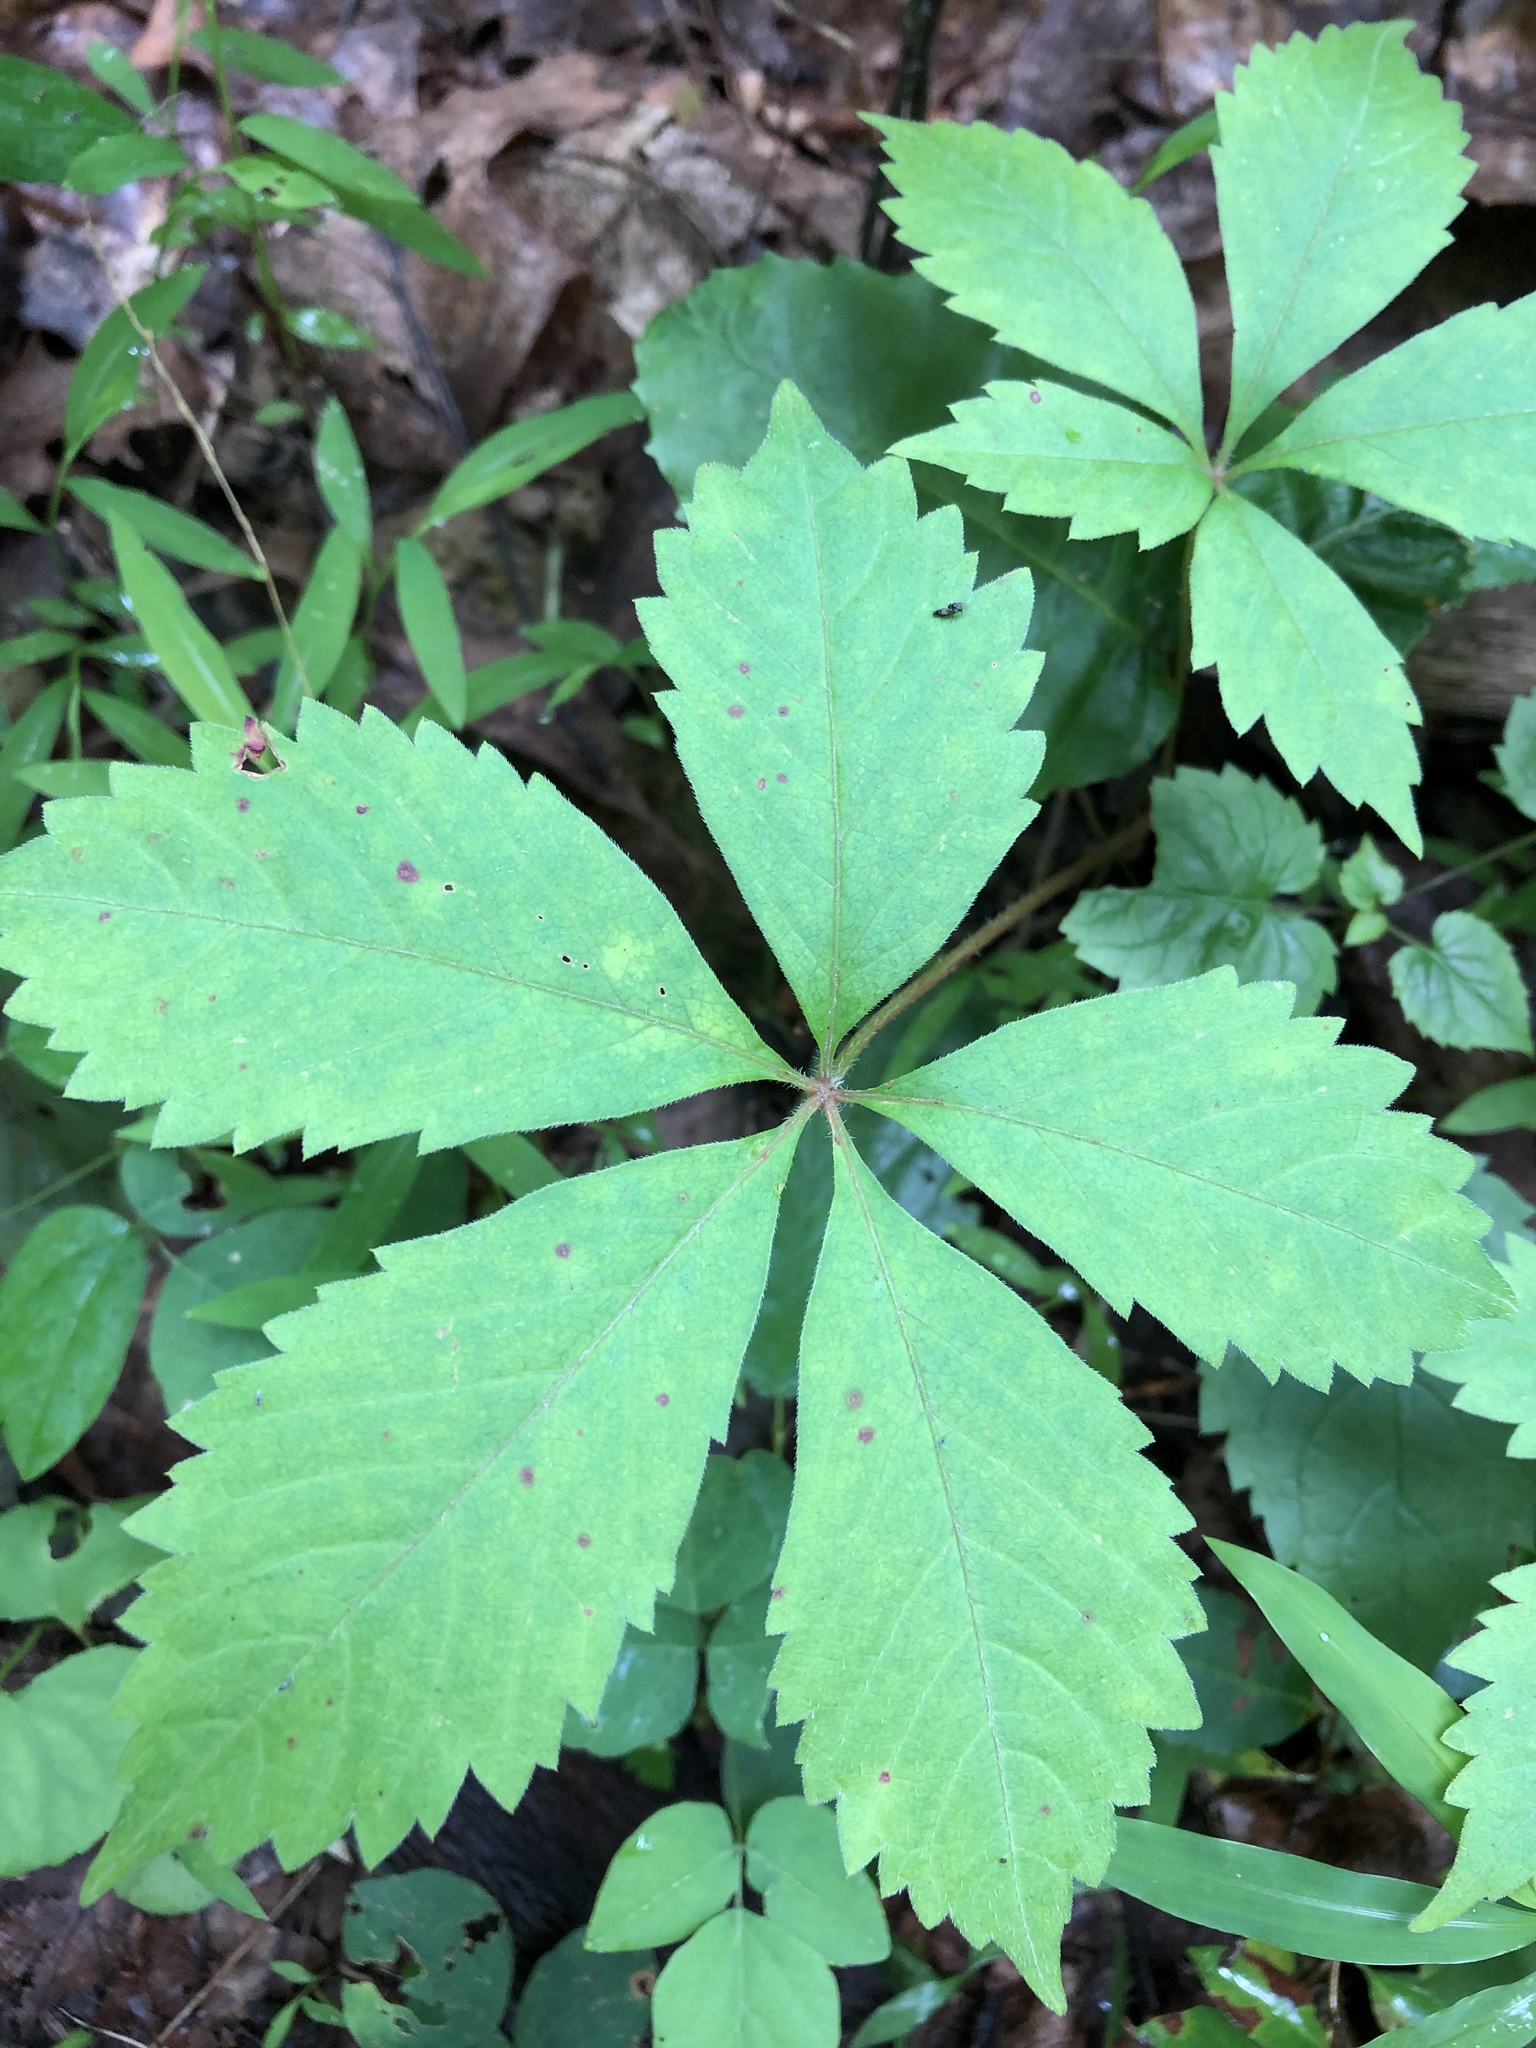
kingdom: Plantae
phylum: Tracheophyta
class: Magnoliopsida
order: Vitales
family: Vitaceae
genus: Parthenocissus
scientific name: Parthenocissus quinquefolia
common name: Virginia-creeper
